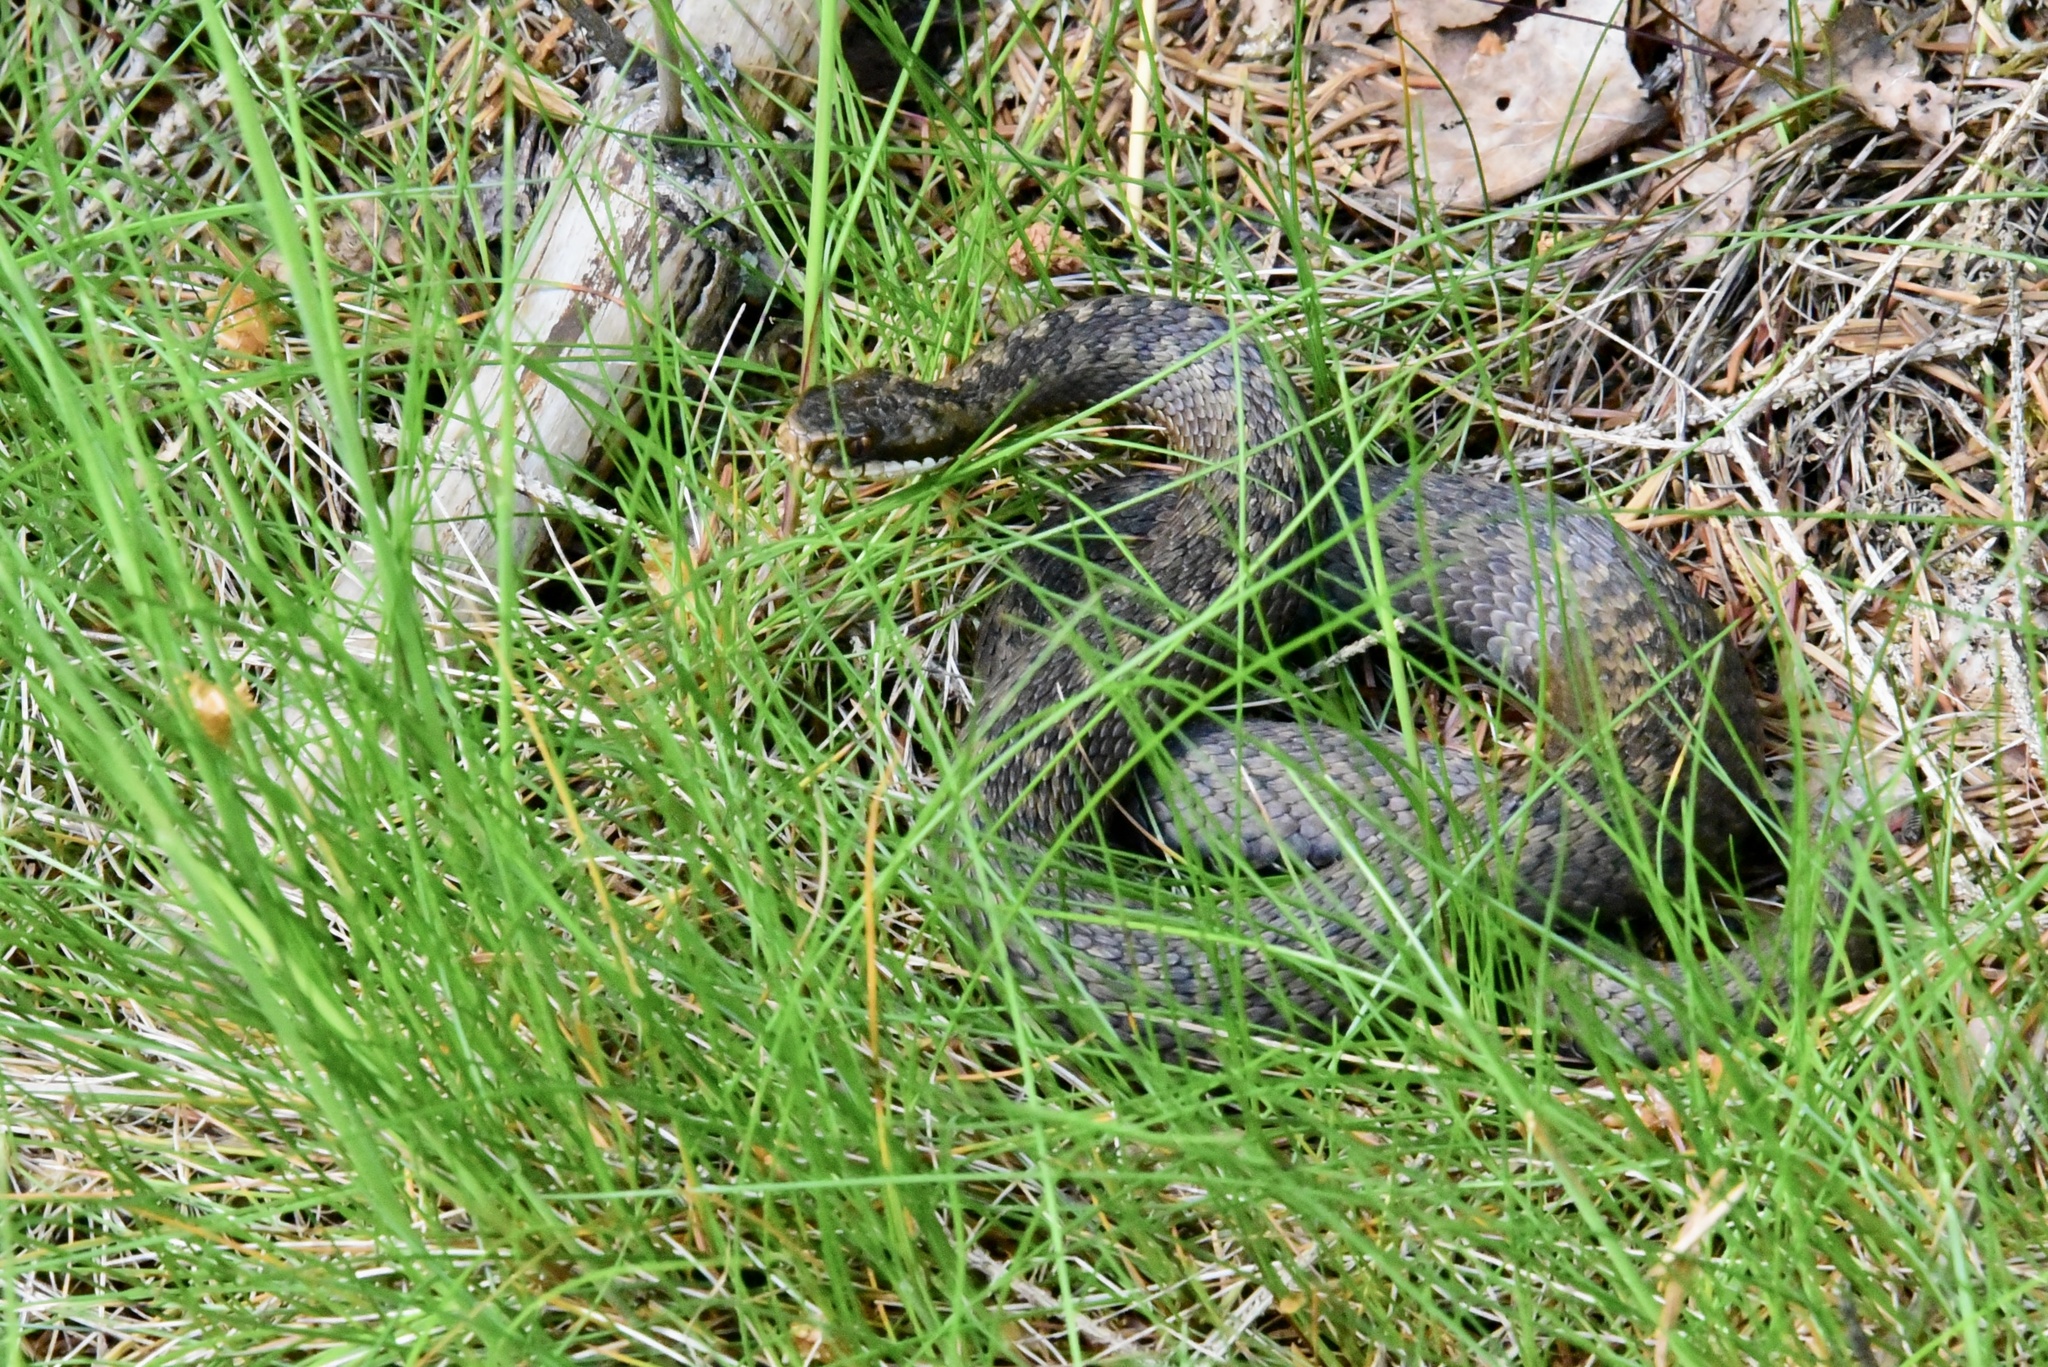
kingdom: Animalia
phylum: Chordata
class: Squamata
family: Viperidae
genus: Vipera
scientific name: Vipera berus
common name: Adder
